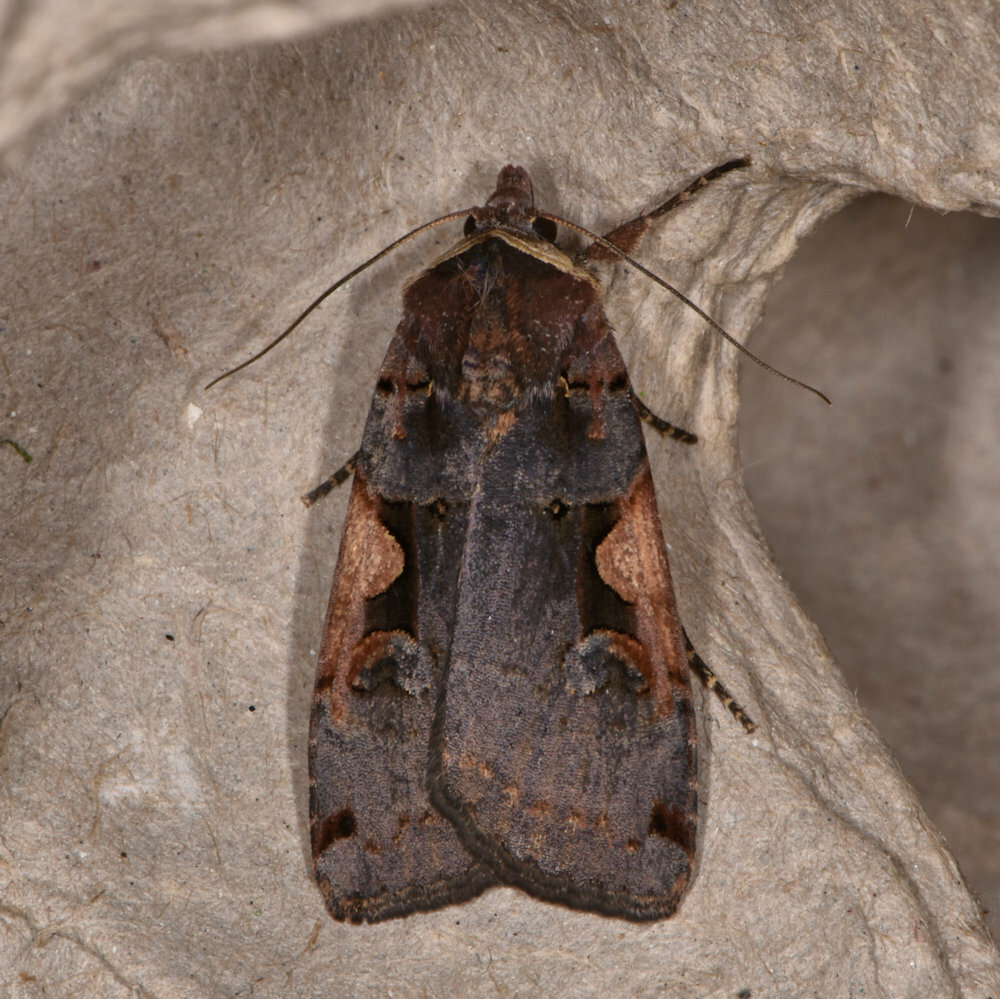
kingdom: Animalia
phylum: Arthropoda
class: Insecta
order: Lepidoptera
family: Noctuidae
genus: Xestia
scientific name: Xestia
